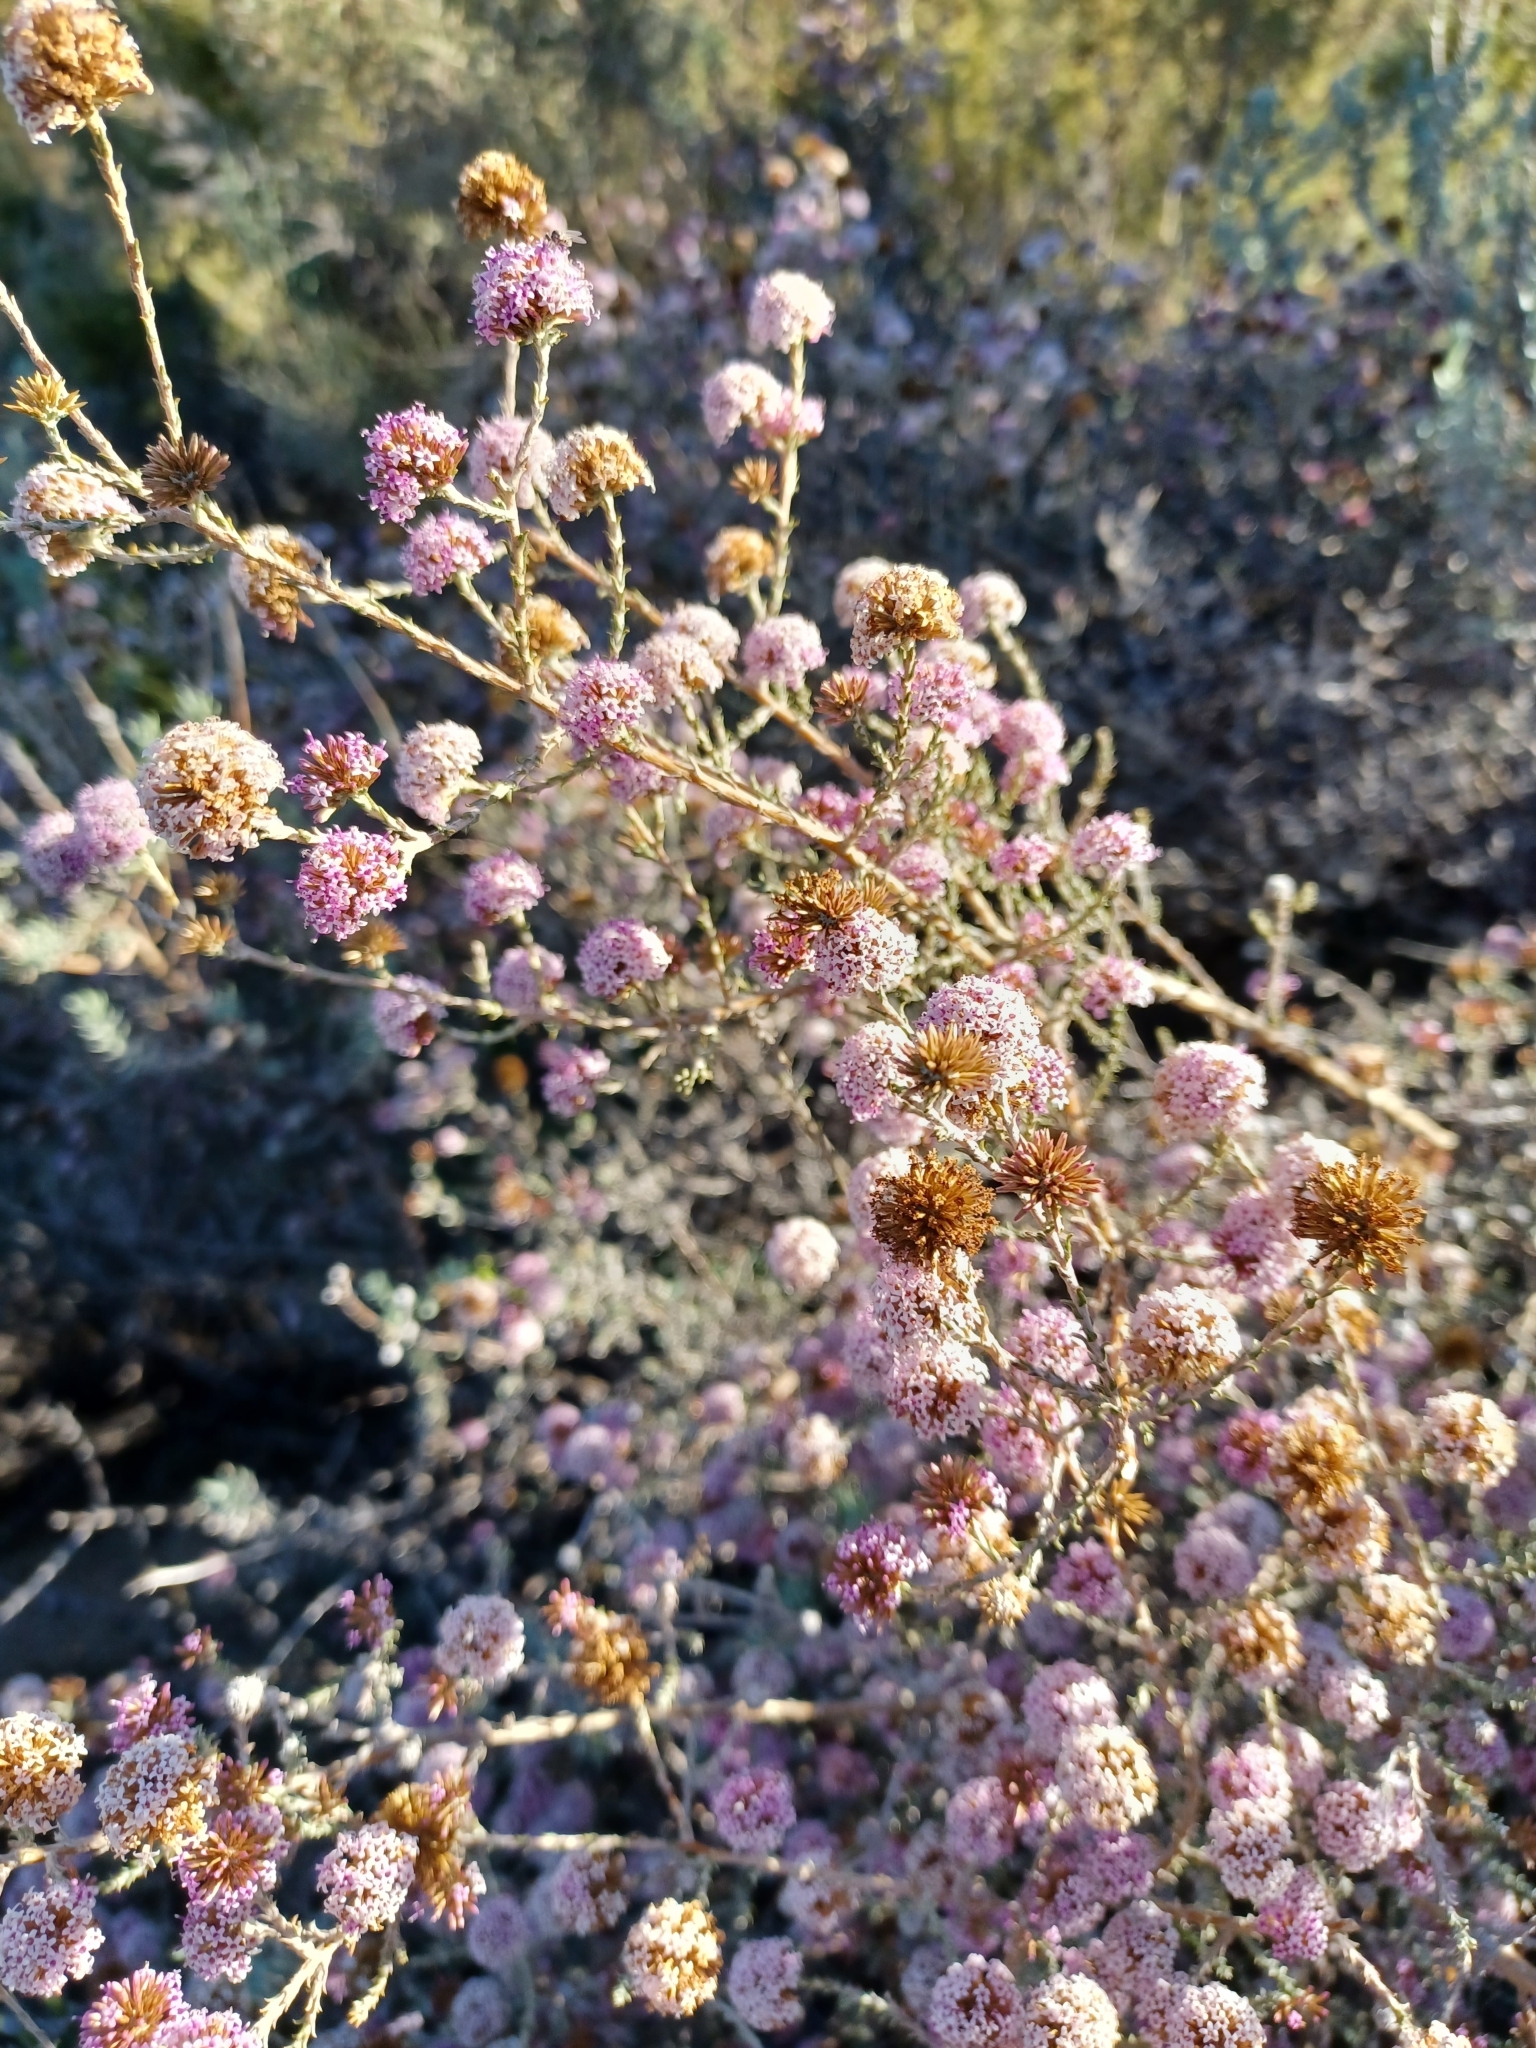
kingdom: Plantae
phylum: Tracheophyta
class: Magnoliopsida
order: Asterales
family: Asteraceae
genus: Stoebe
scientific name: Stoebe capitata
